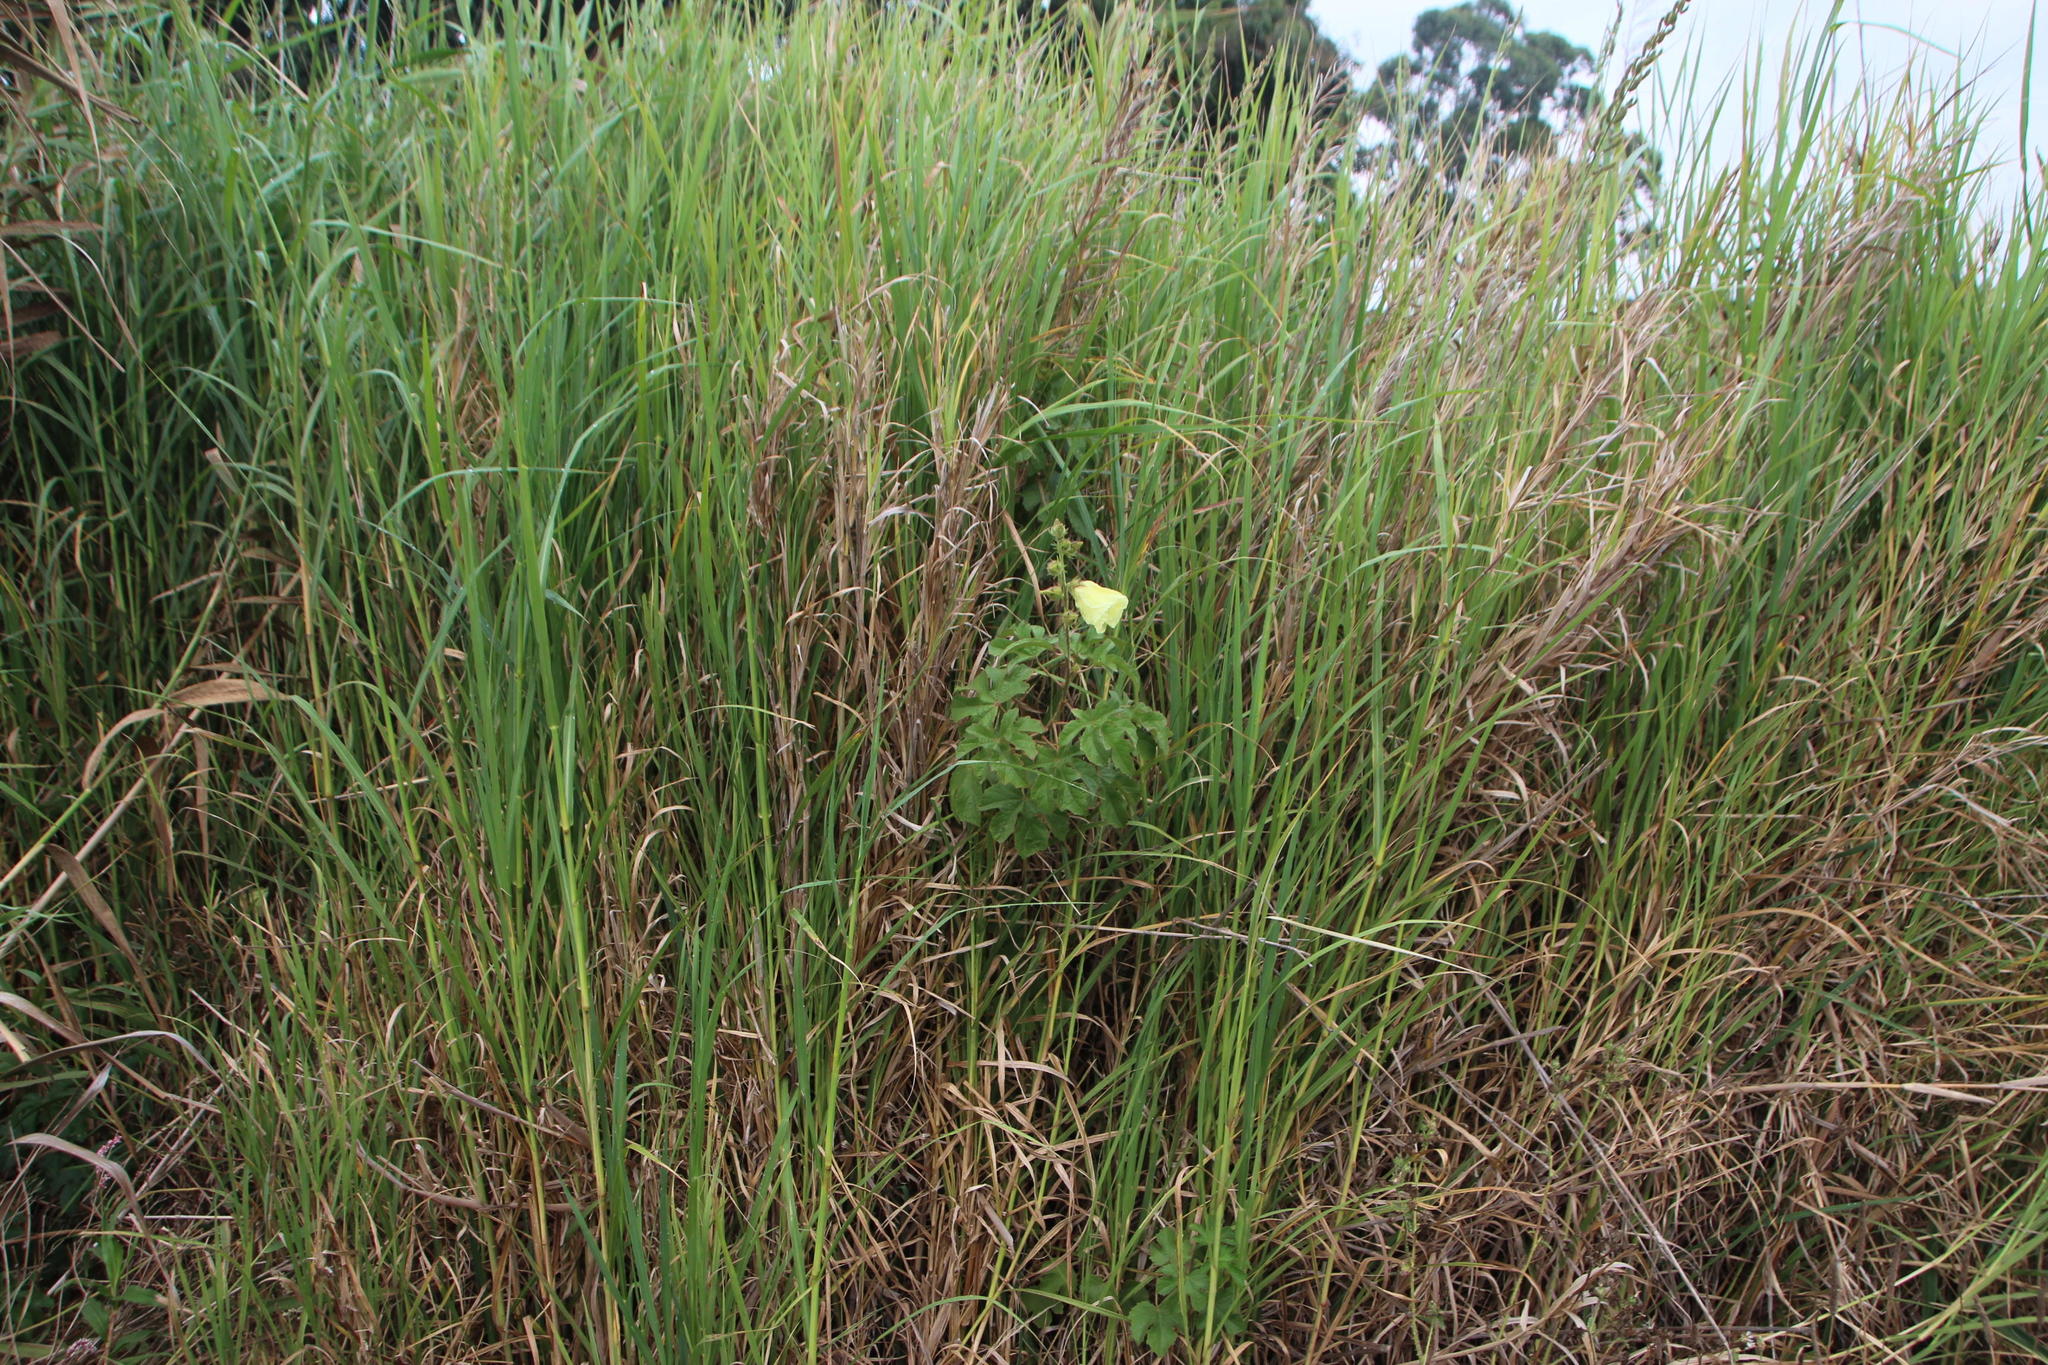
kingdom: Plantae
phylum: Tracheophyta
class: Magnoliopsida
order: Malvales
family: Malvaceae
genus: Hibiscus
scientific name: Hibiscus diversifolius
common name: Cape hibiscus
